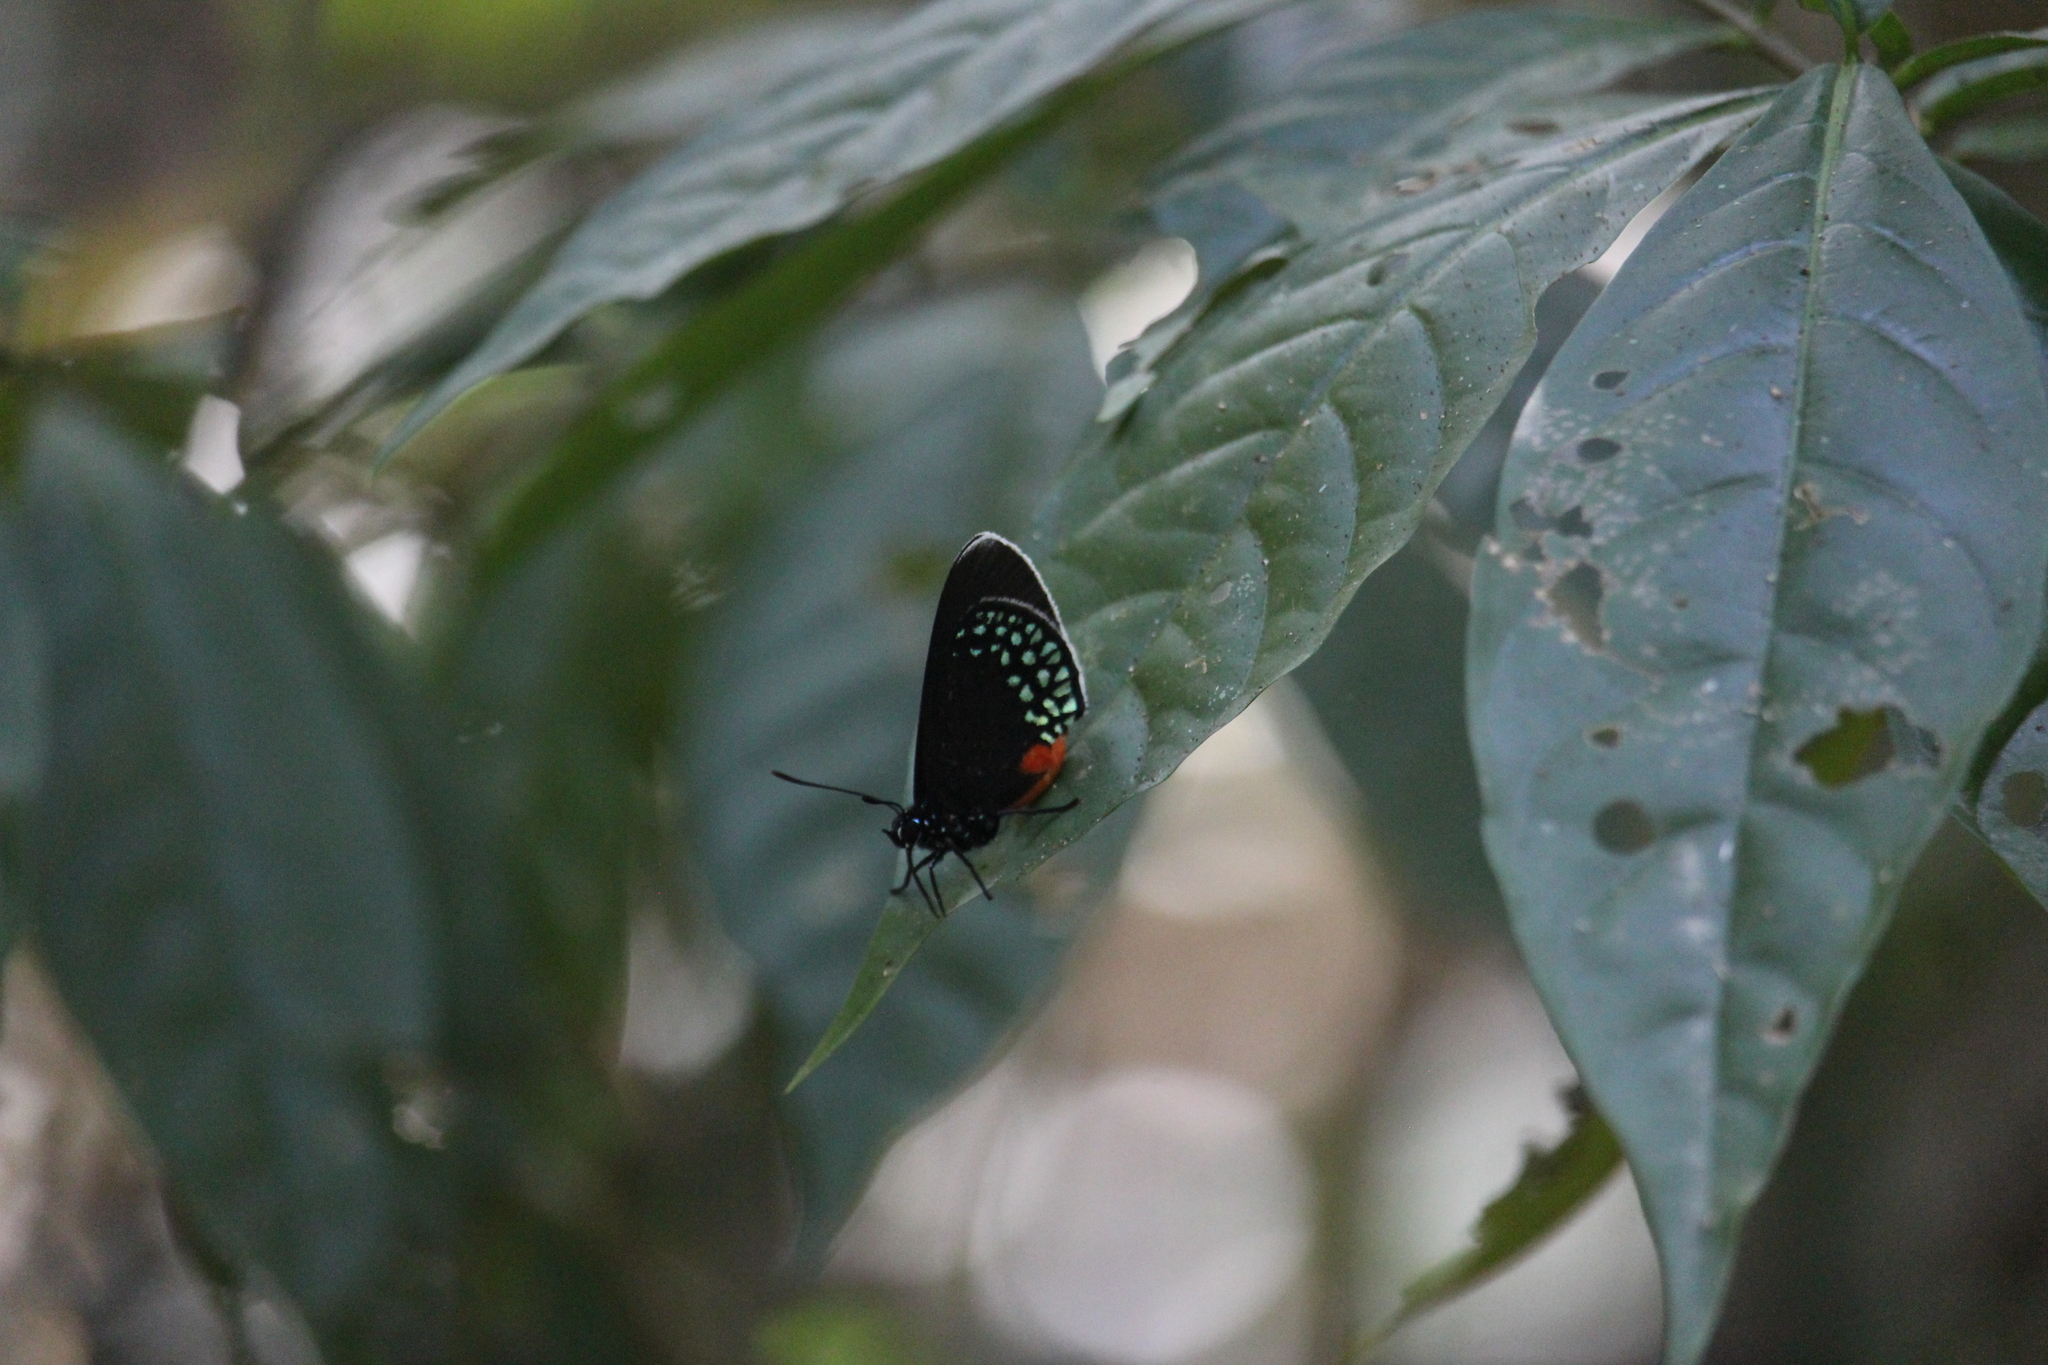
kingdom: Animalia
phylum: Arthropoda
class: Insecta
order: Lepidoptera
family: Lycaenidae
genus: Eumaeus
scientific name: Eumaeus toxea
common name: Mexican cycadian
